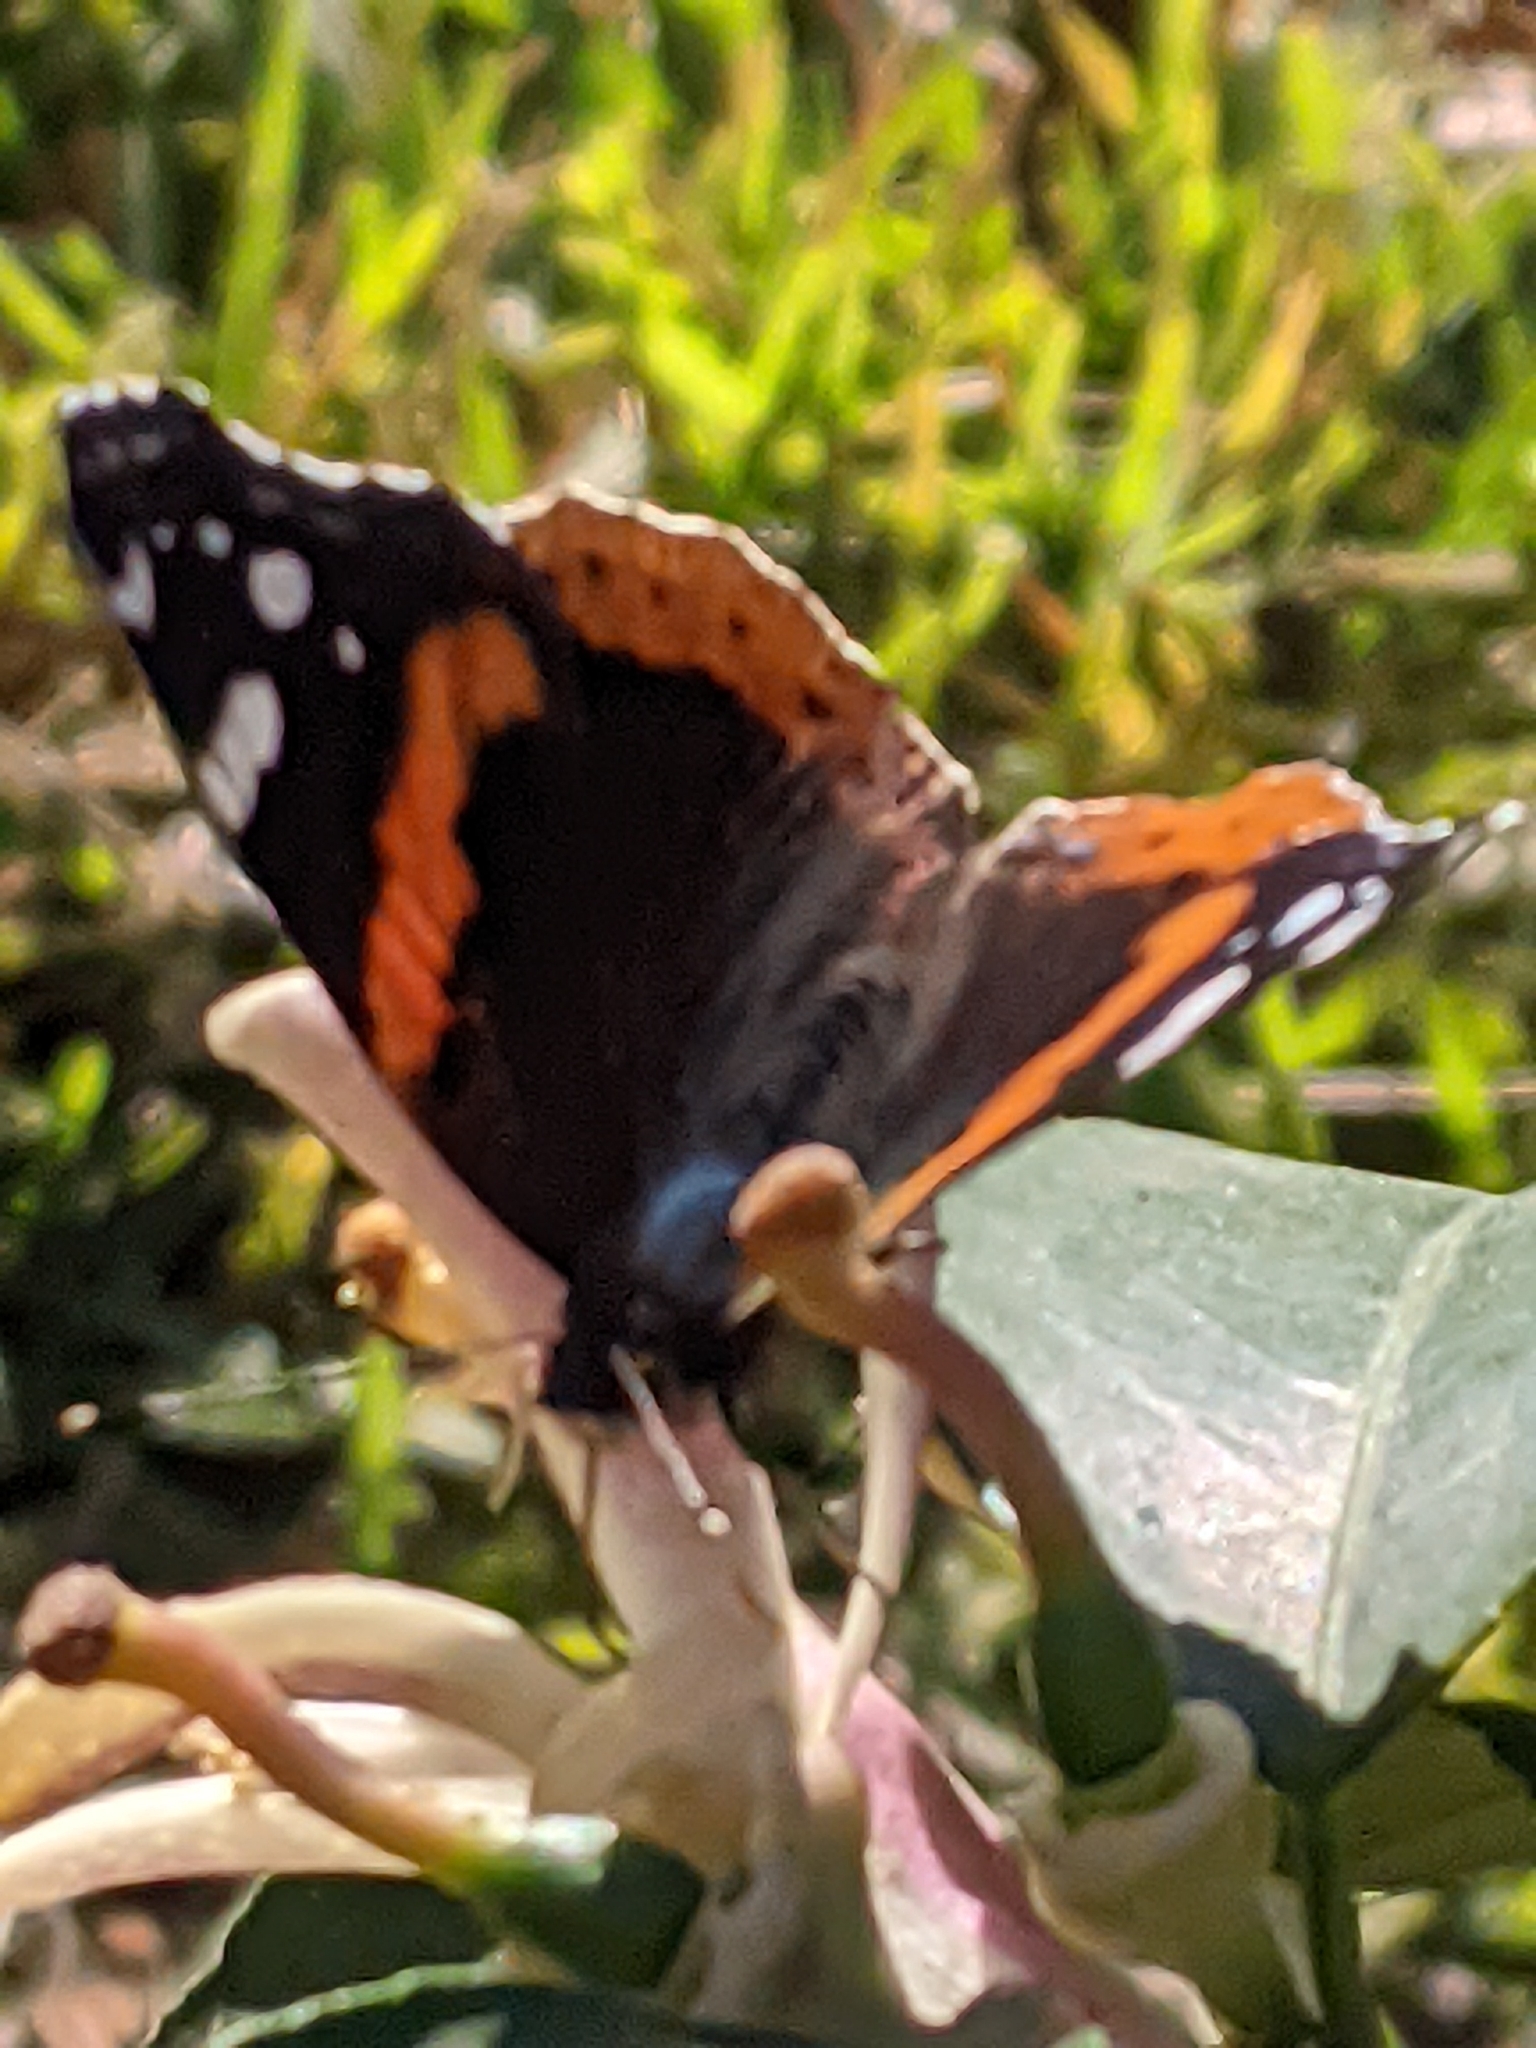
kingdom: Animalia
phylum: Arthropoda
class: Insecta
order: Lepidoptera
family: Nymphalidae
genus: Vanessa
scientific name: Vanessa atalanta
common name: Red admiral
